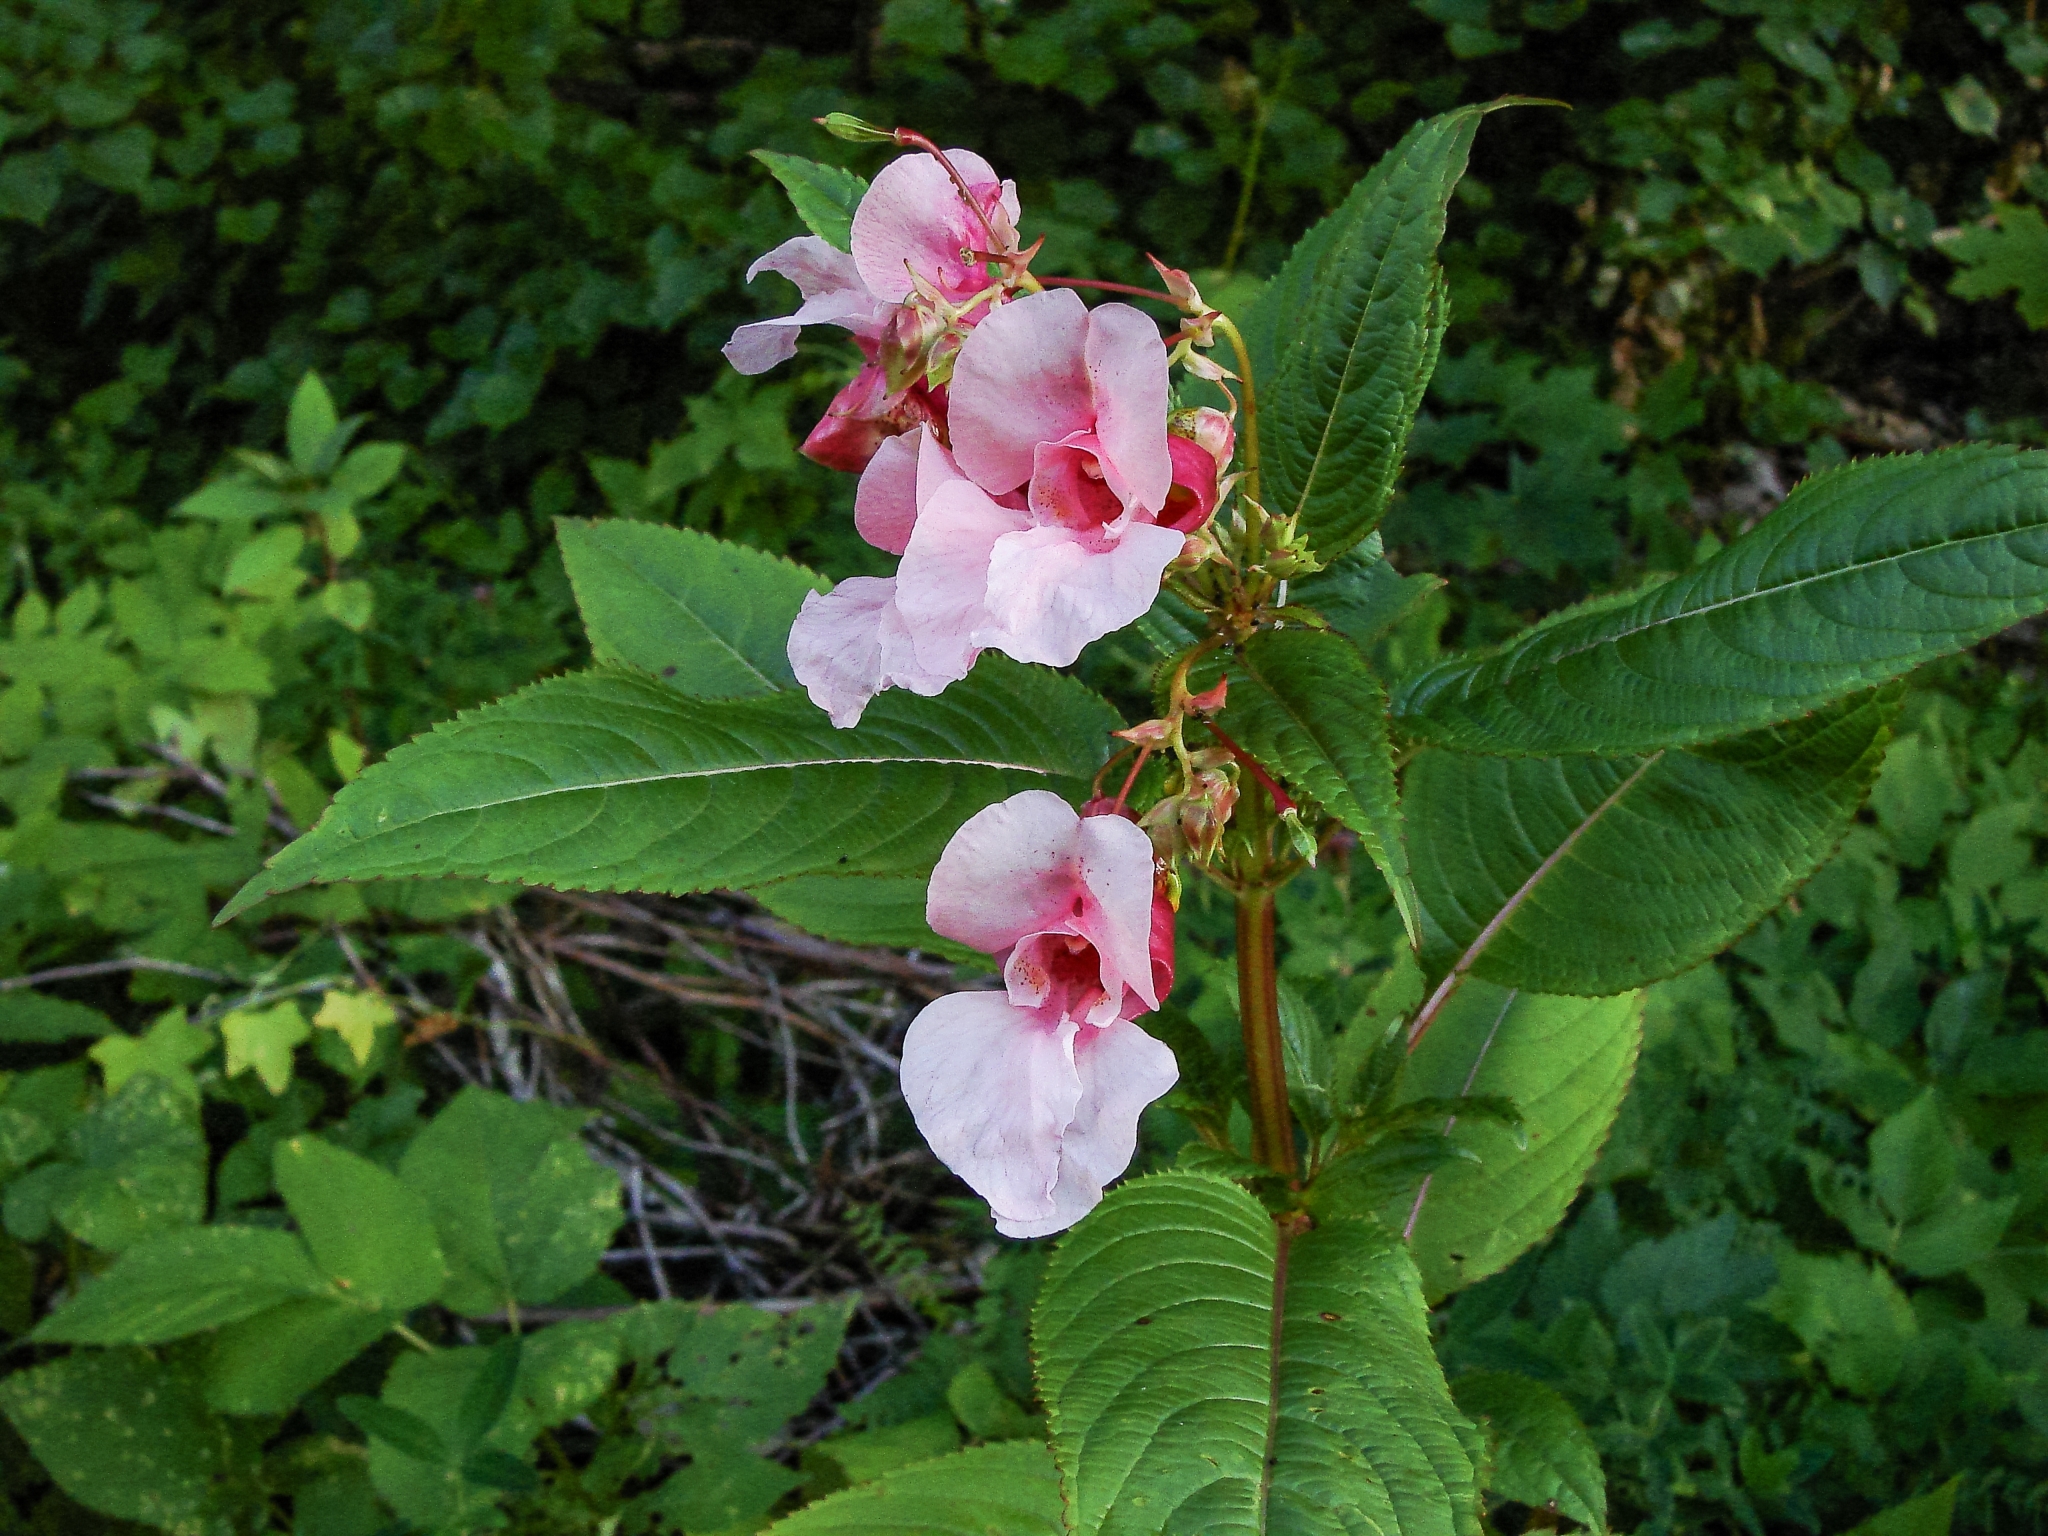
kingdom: Plantae
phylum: Tracheophyta
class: Magnoliopsida
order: Ericales
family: Balsaminaceae
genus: Impatiens
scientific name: Impatiens glandulifera
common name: Himalayan balsam
